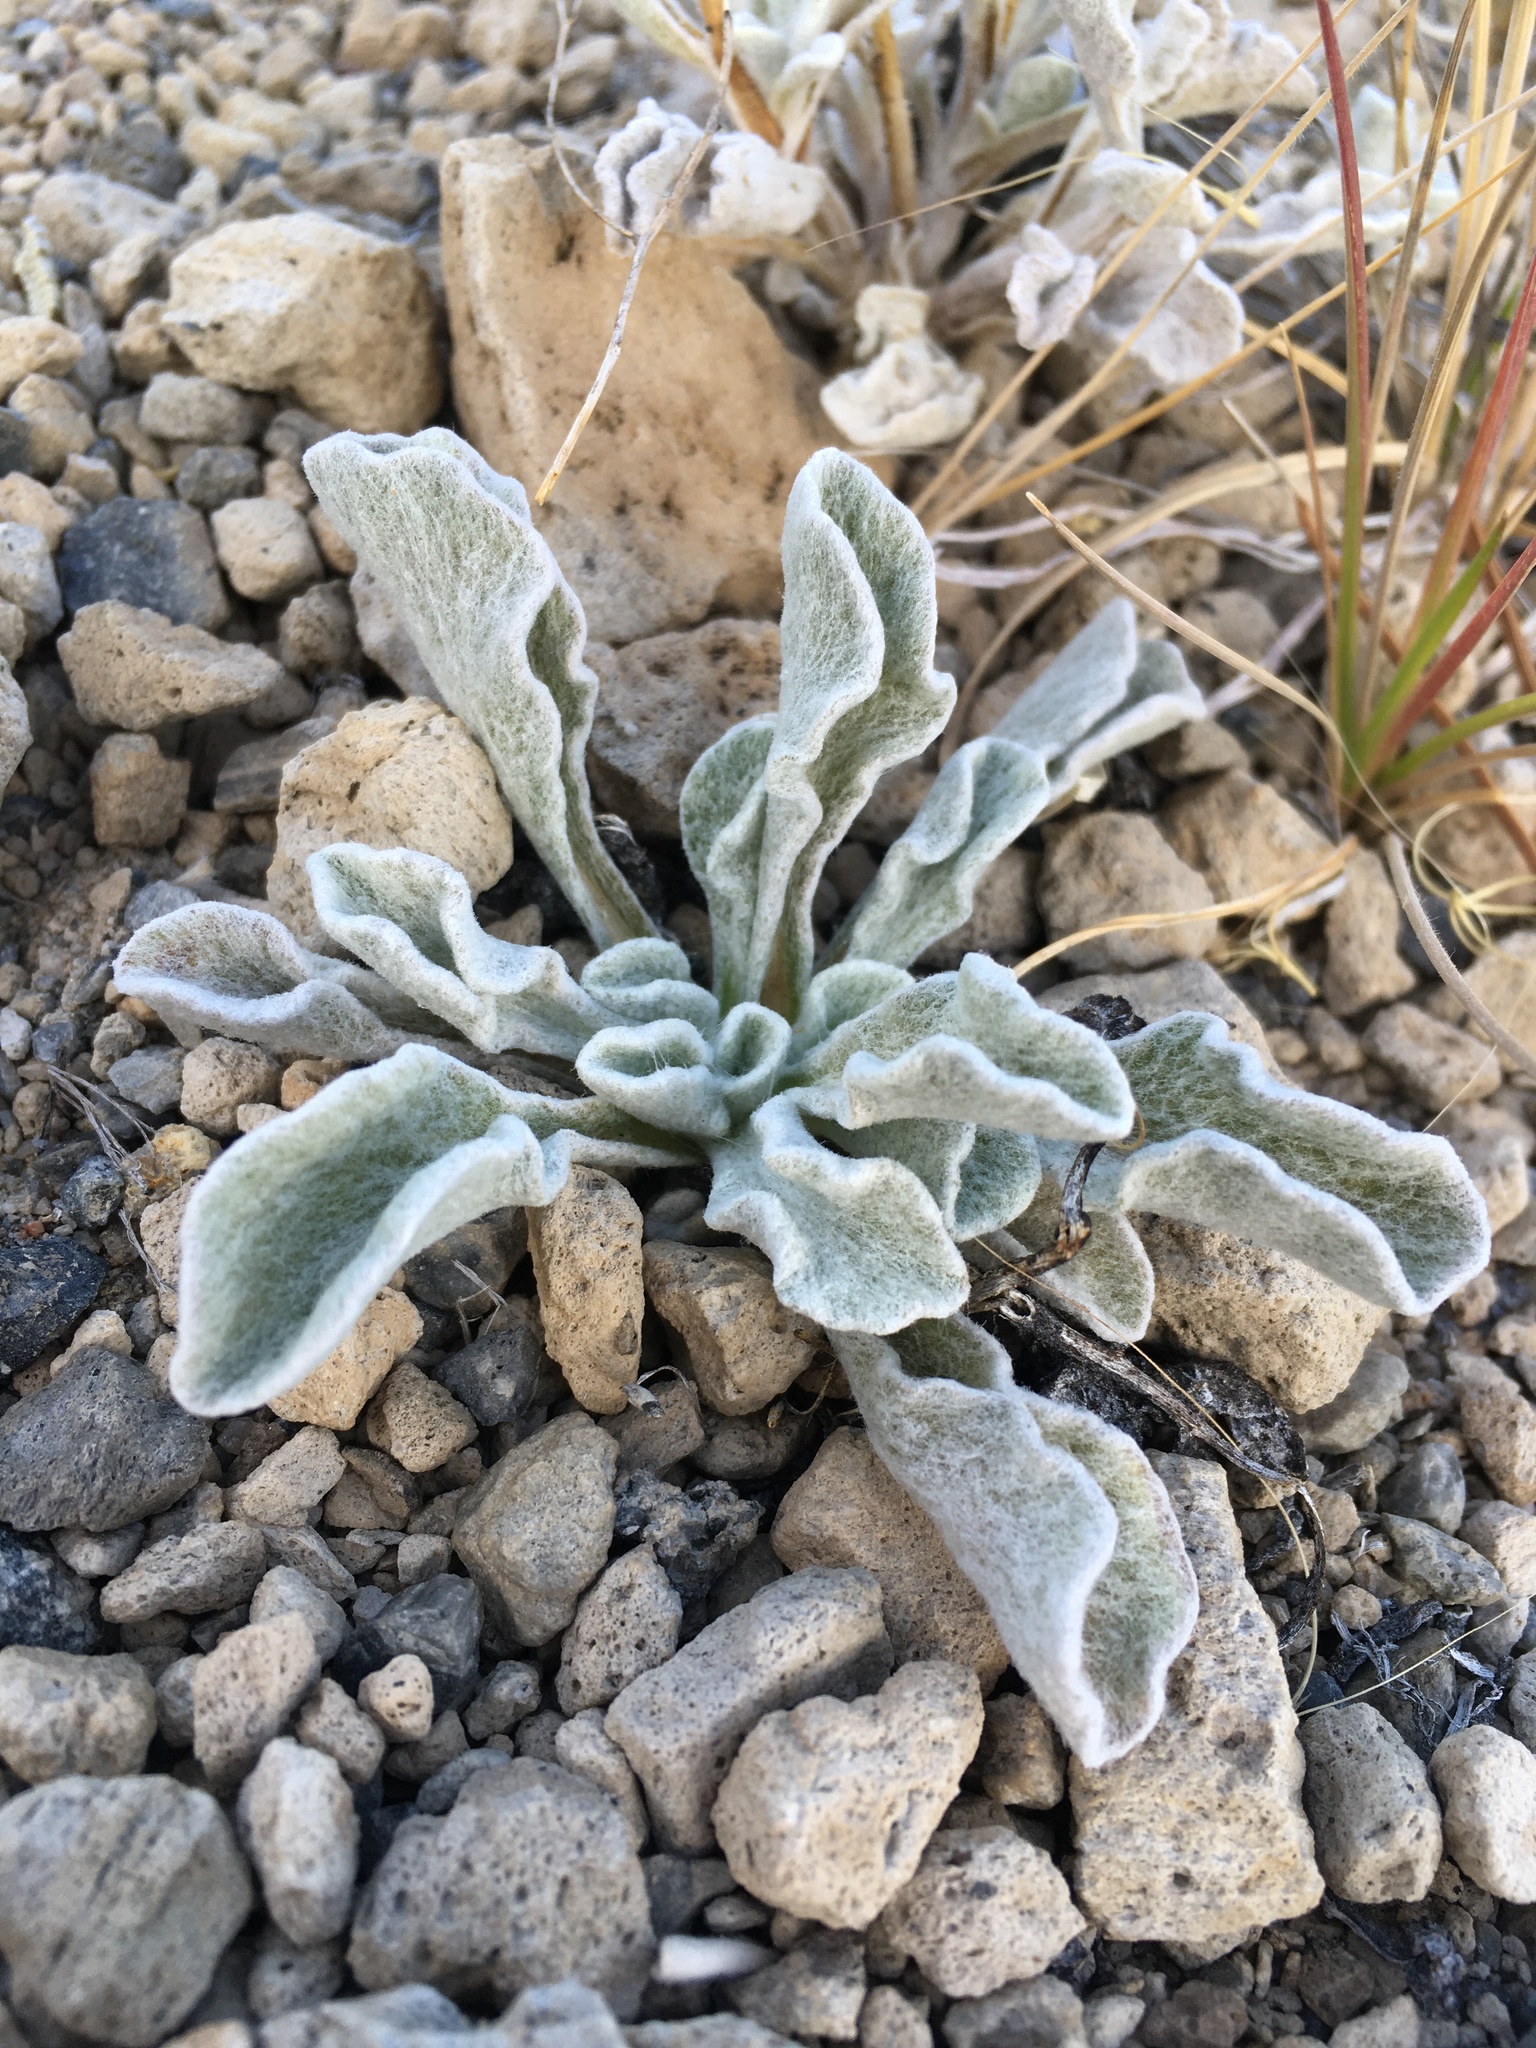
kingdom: Plantae
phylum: Tracheophyta
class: Magnoliopsida
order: Asterales
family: Asteraceae
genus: Hulsea
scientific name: Hulsea vestita
